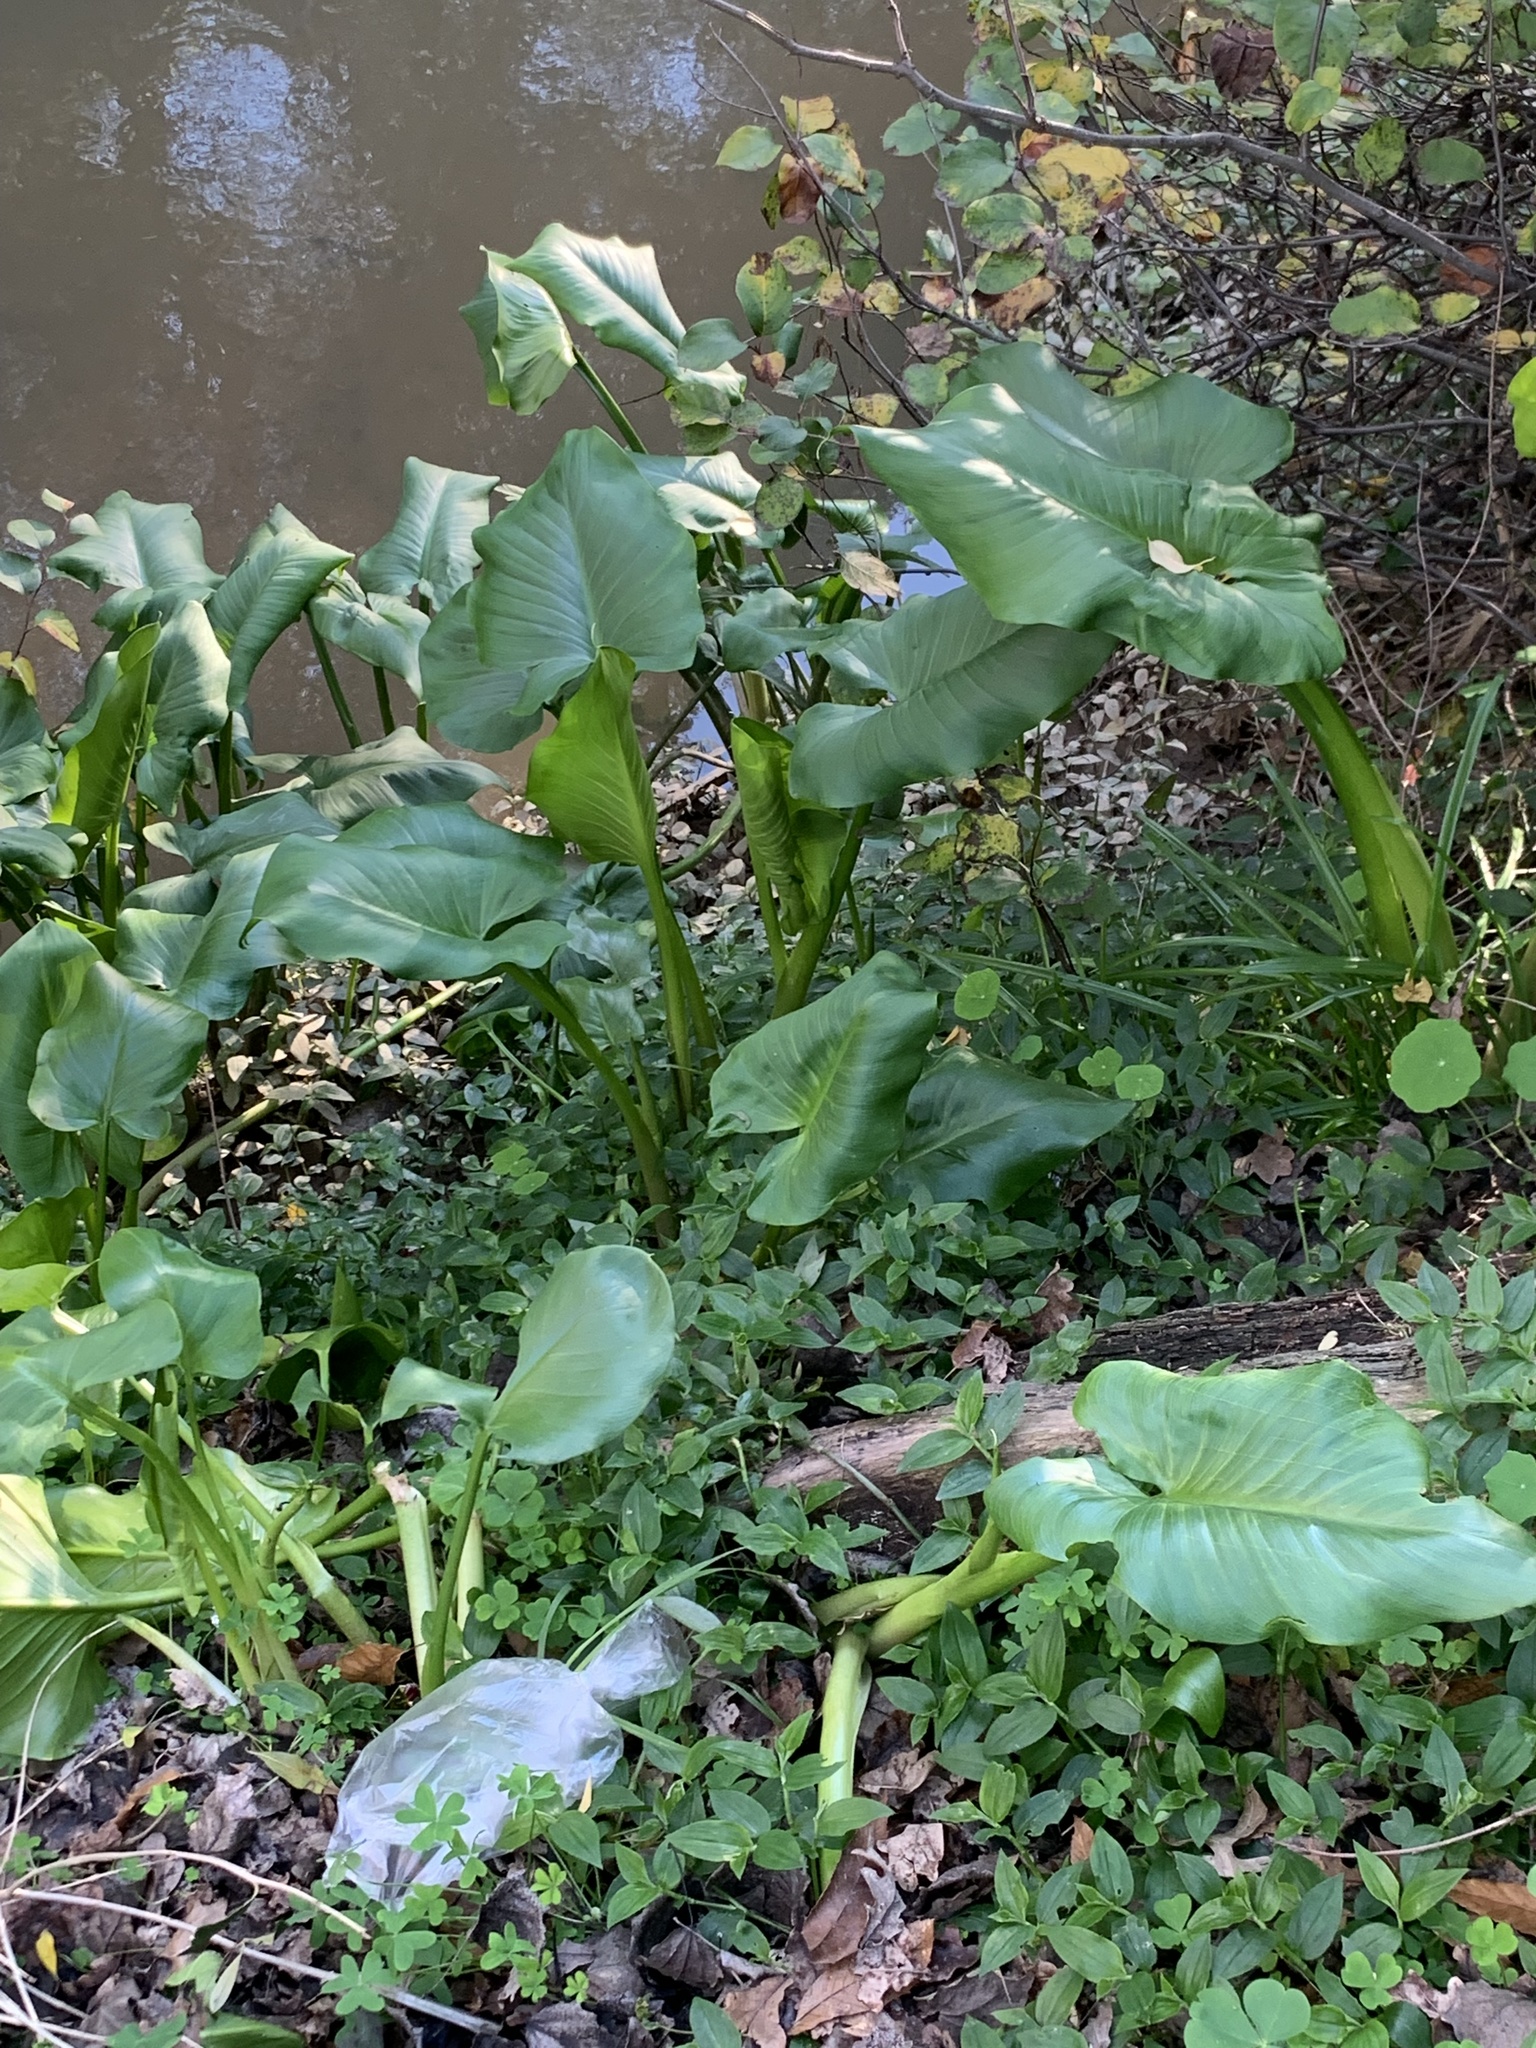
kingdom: Plantae
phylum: Tracheophyta
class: Liliopsida
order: Alismatales
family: Araceae
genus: Zantedeschia
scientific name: Zantedeschia aethiopica
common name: Altar-lily
